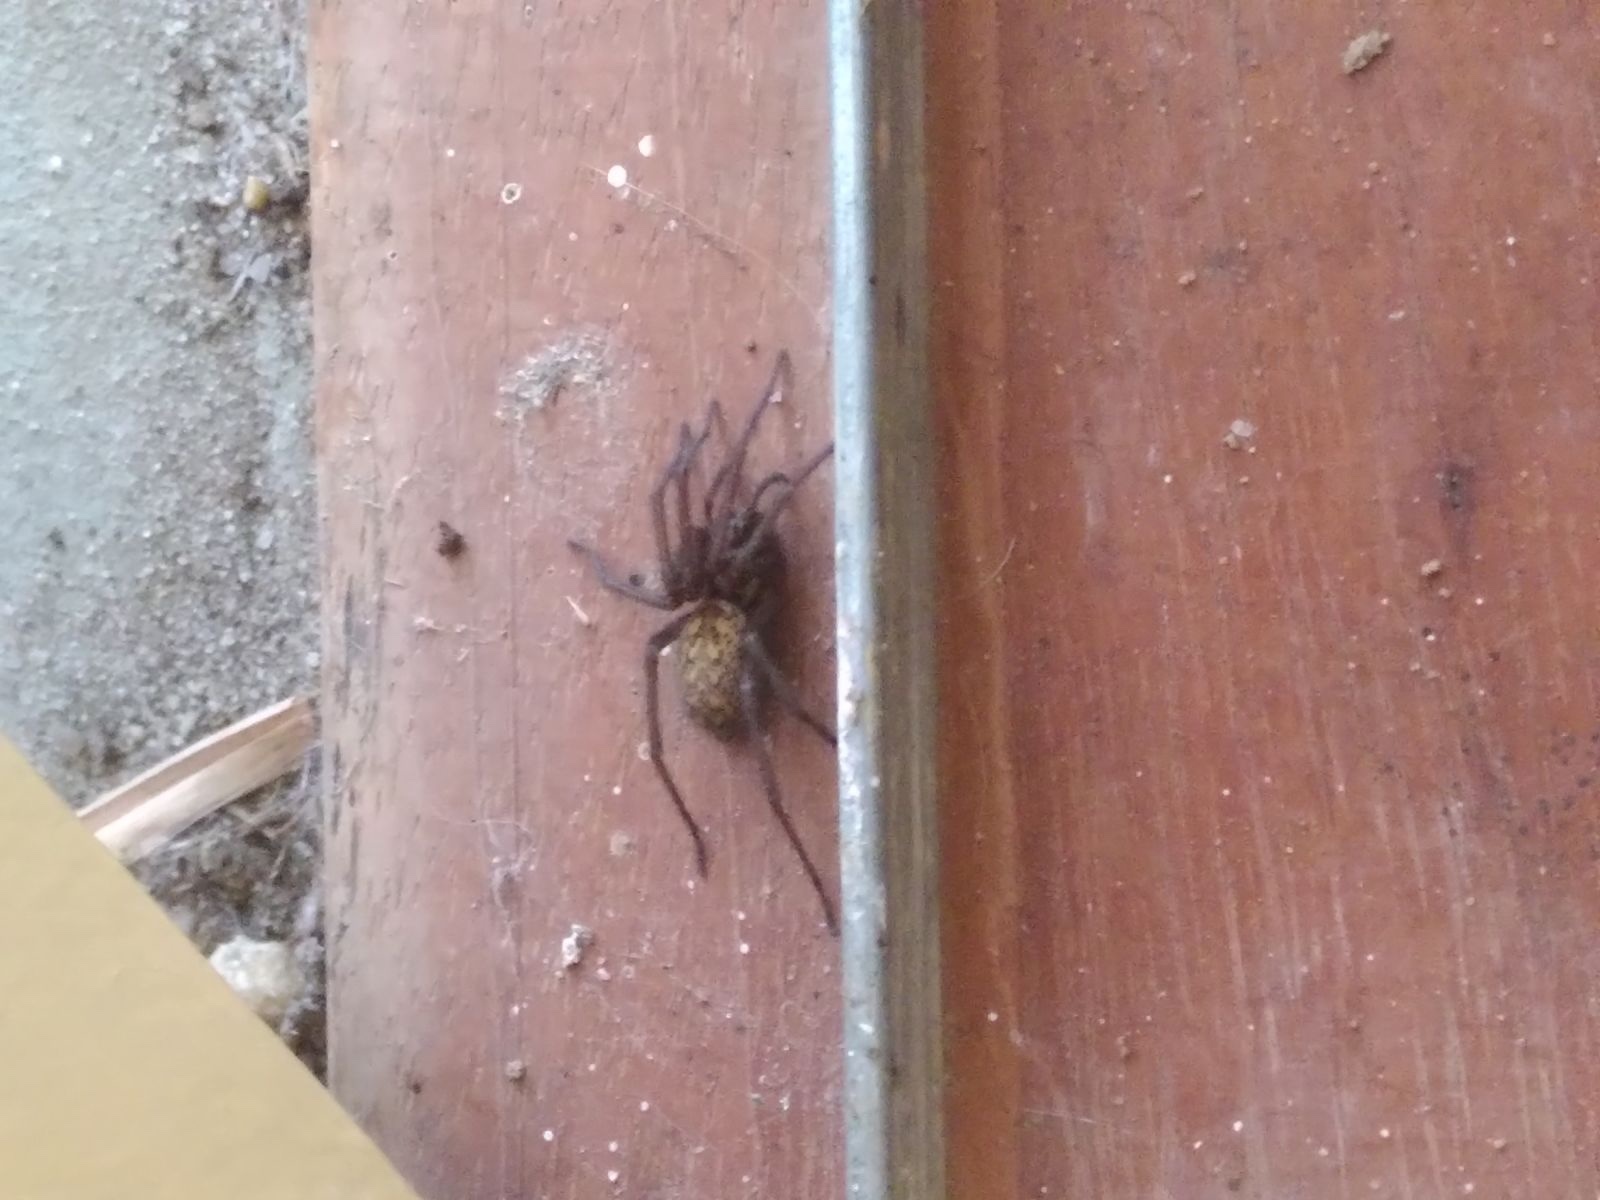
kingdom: Animalia
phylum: Arthropoda
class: Arachnida
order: Araneae
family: Agelenidae
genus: Eratigena
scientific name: Eratigena atrica
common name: Giant house spider
